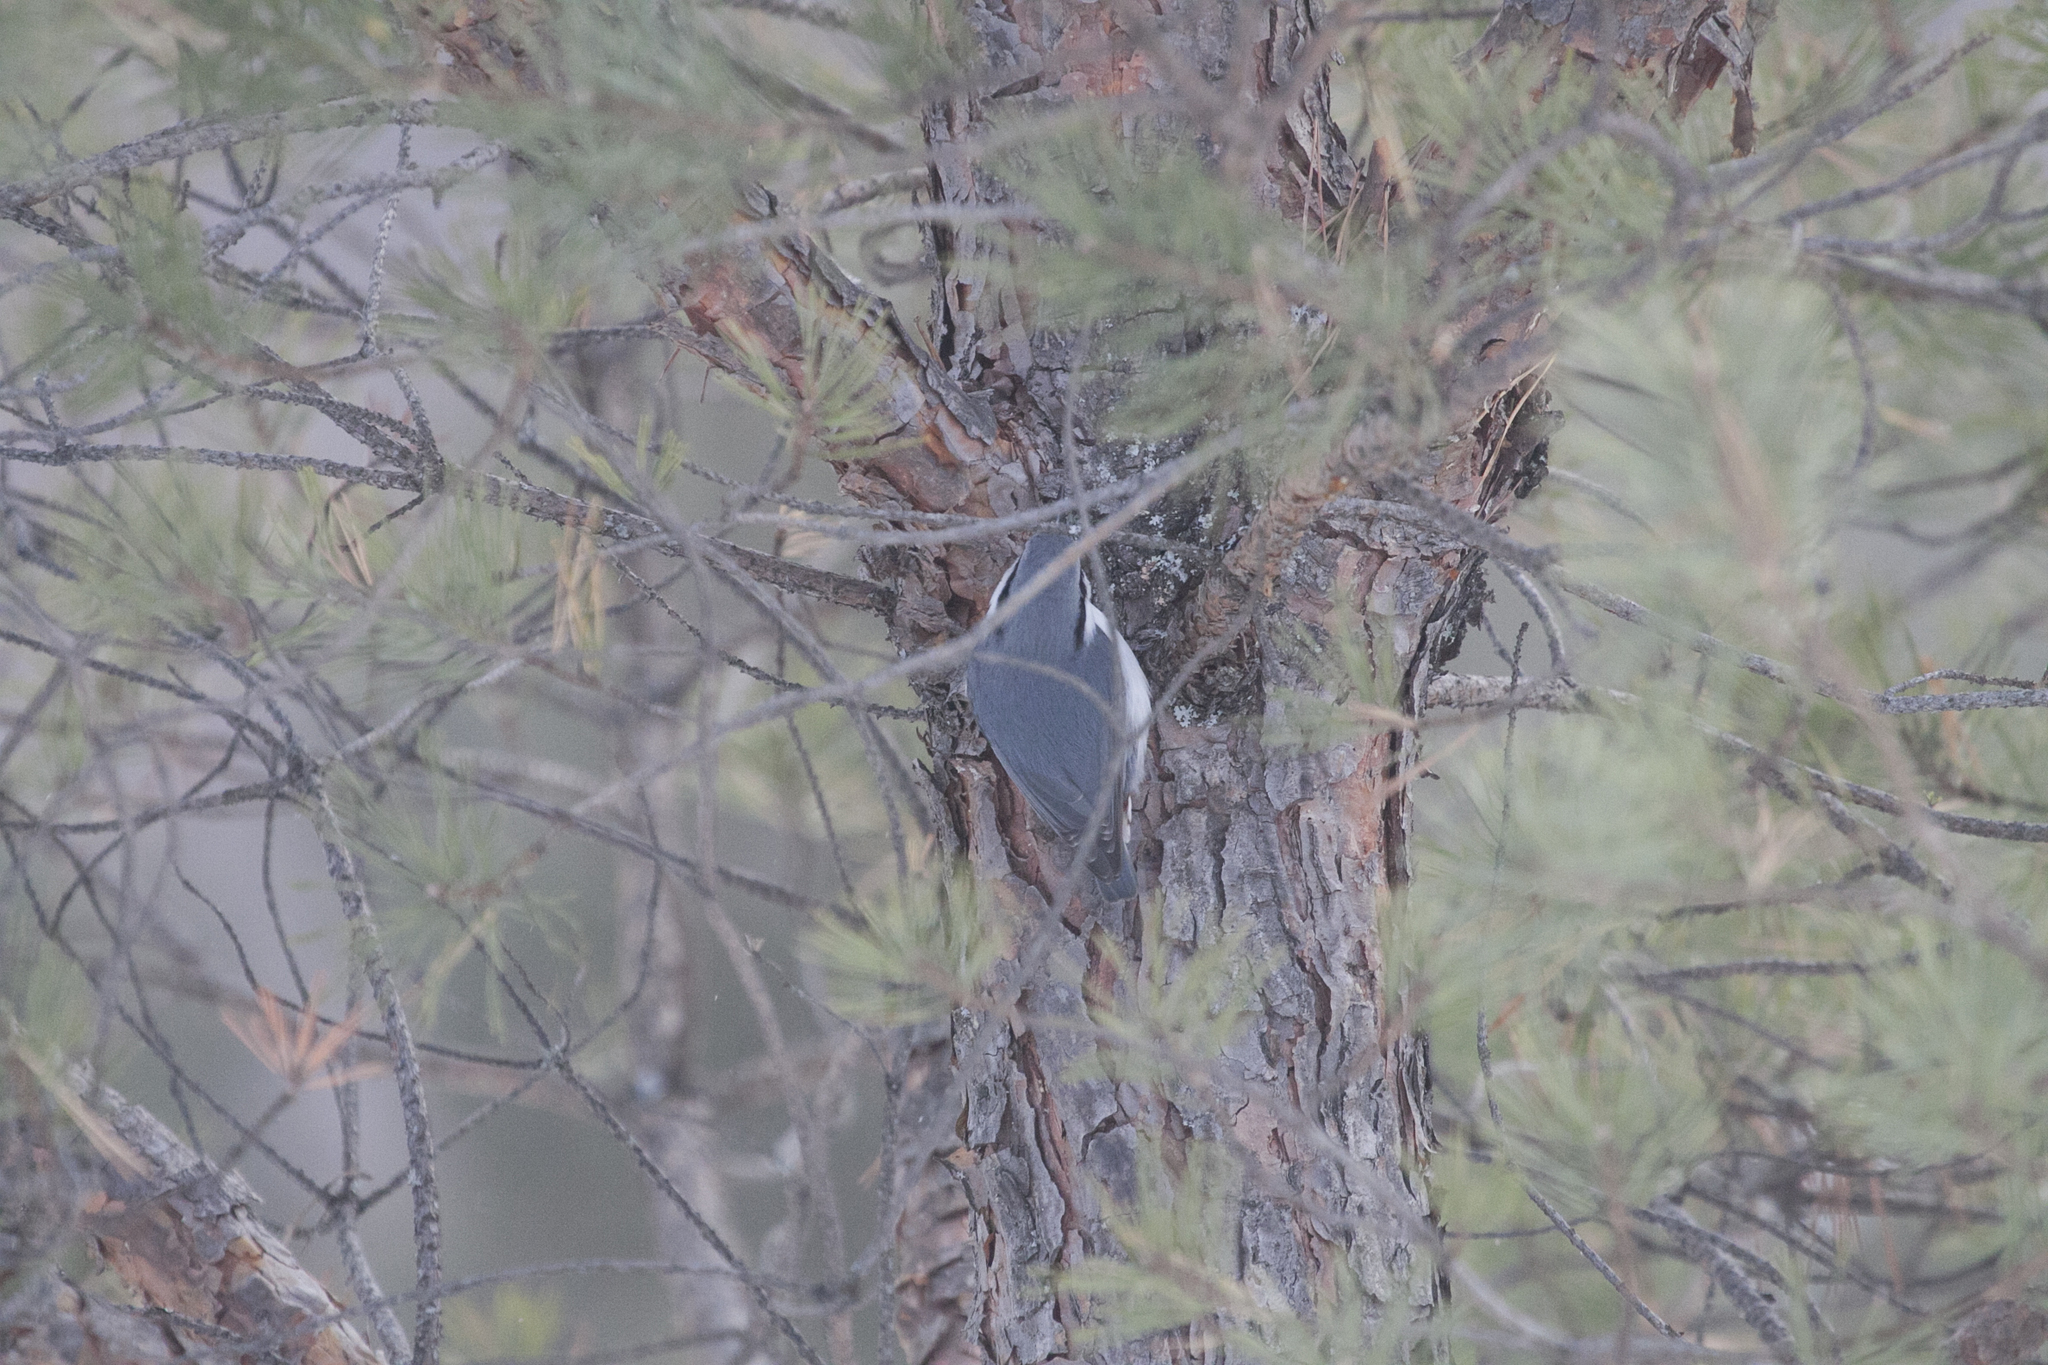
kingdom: Animalia
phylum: Chordata
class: Aves
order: Passeriformes
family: Sittidae
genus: Sitta
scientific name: Sitta europaea
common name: Eurasian nuthatch
